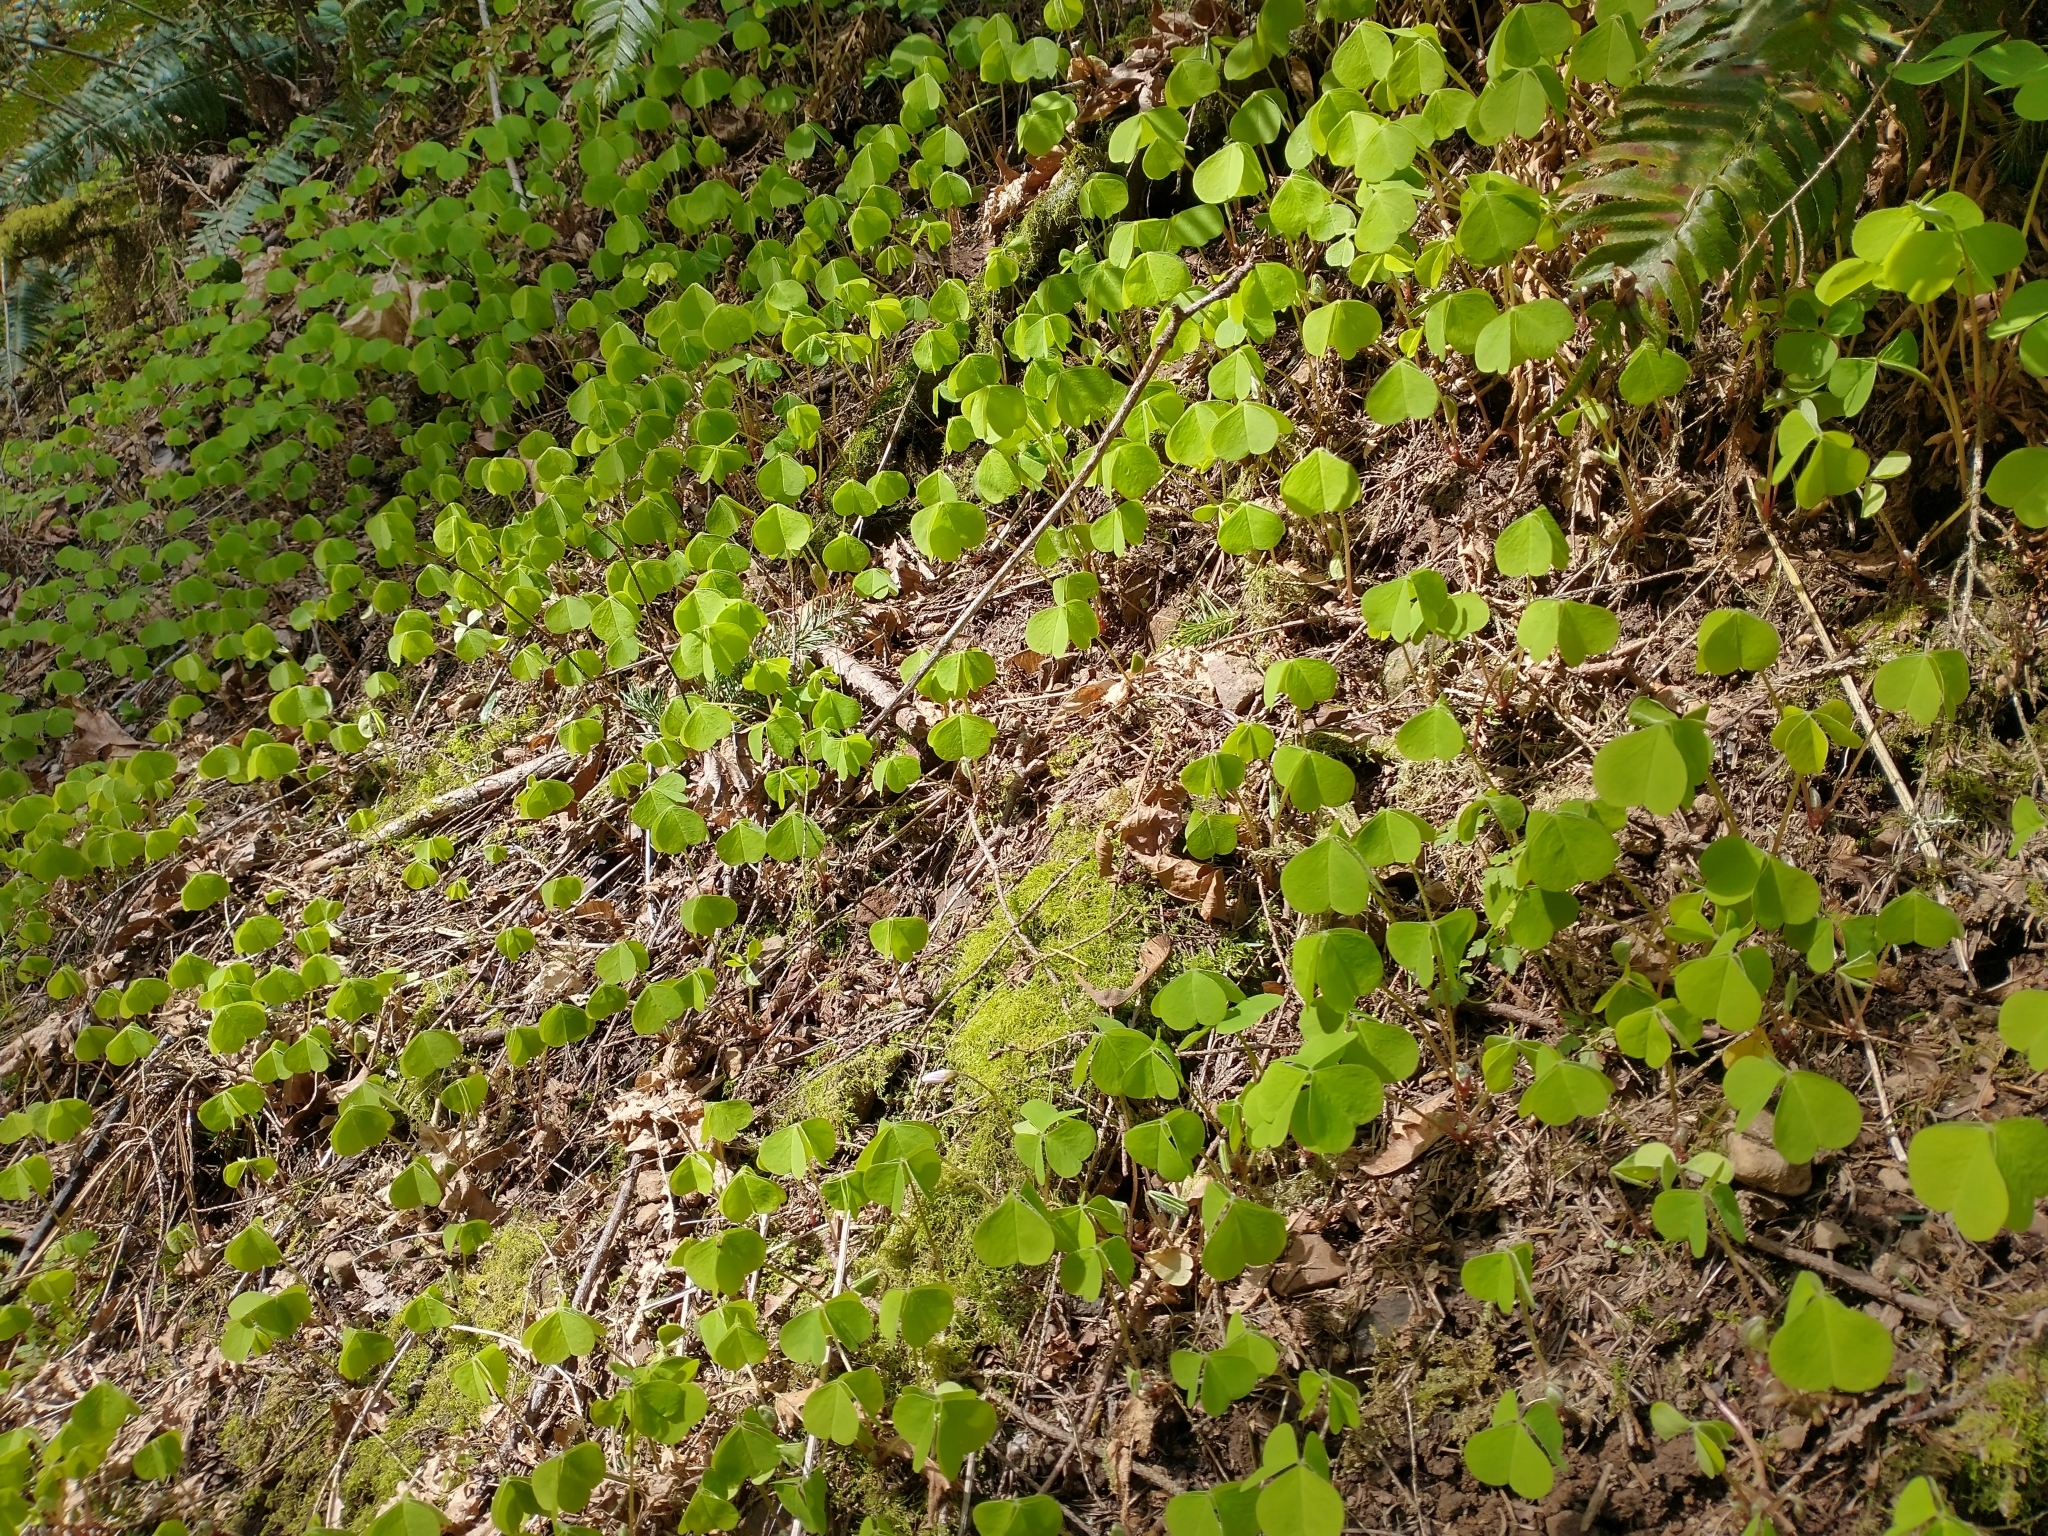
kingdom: Plantae
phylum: Tracheophyta
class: Magnoliopsida
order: Oxalidales
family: Oxalidaceae
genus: Oxalis
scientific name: Oxalis oregana
